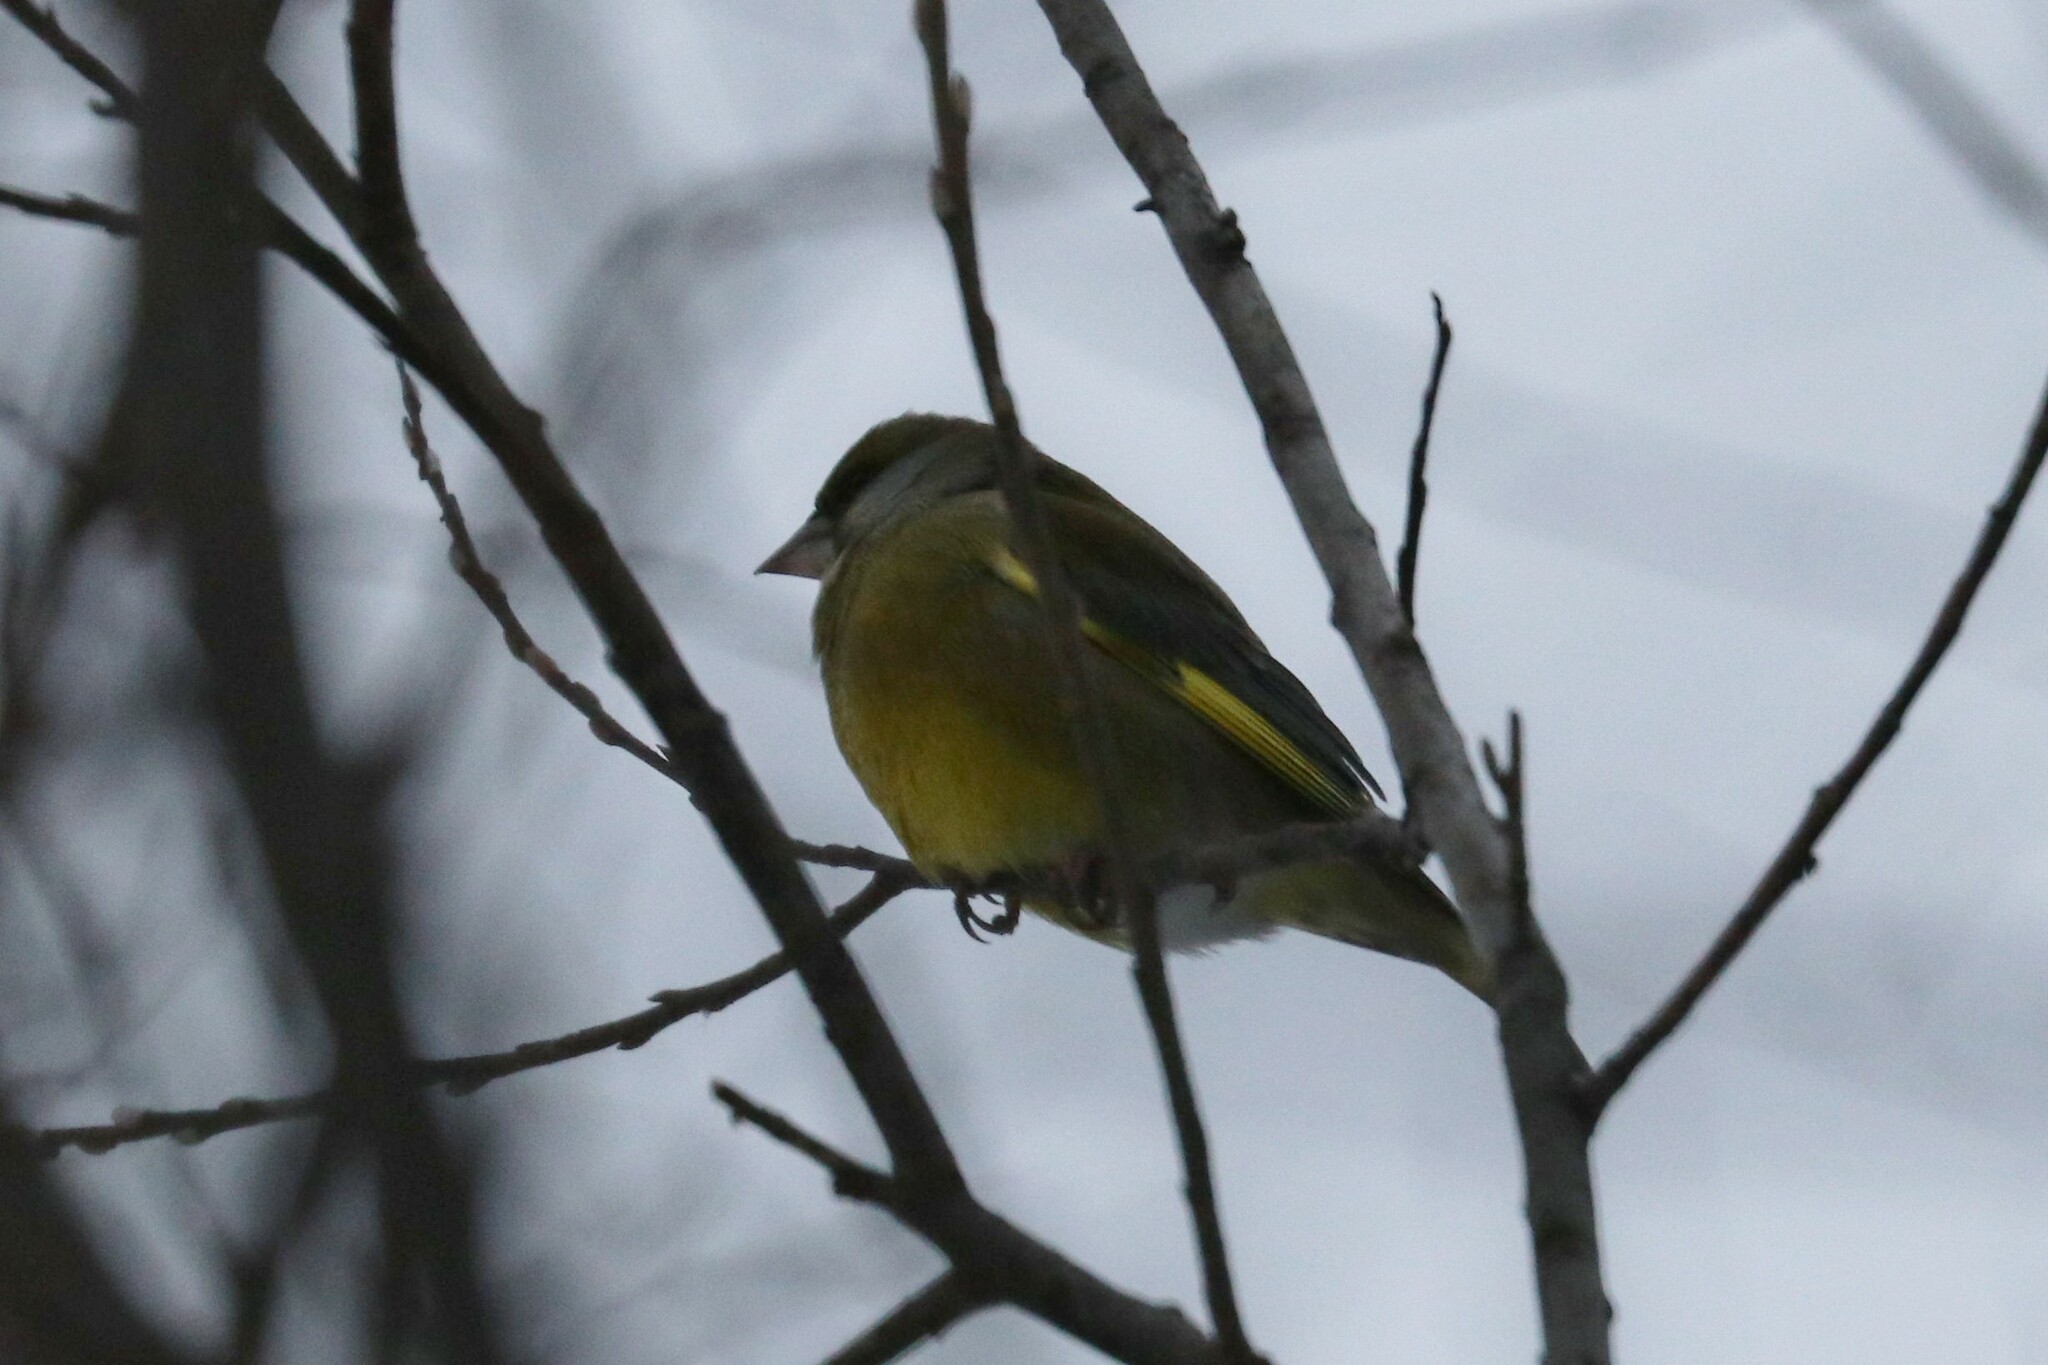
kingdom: Plantae
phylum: Tracheophyta
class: Liliopsida
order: Poales
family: Poaceae
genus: Chloris
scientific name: Chloris chloris
